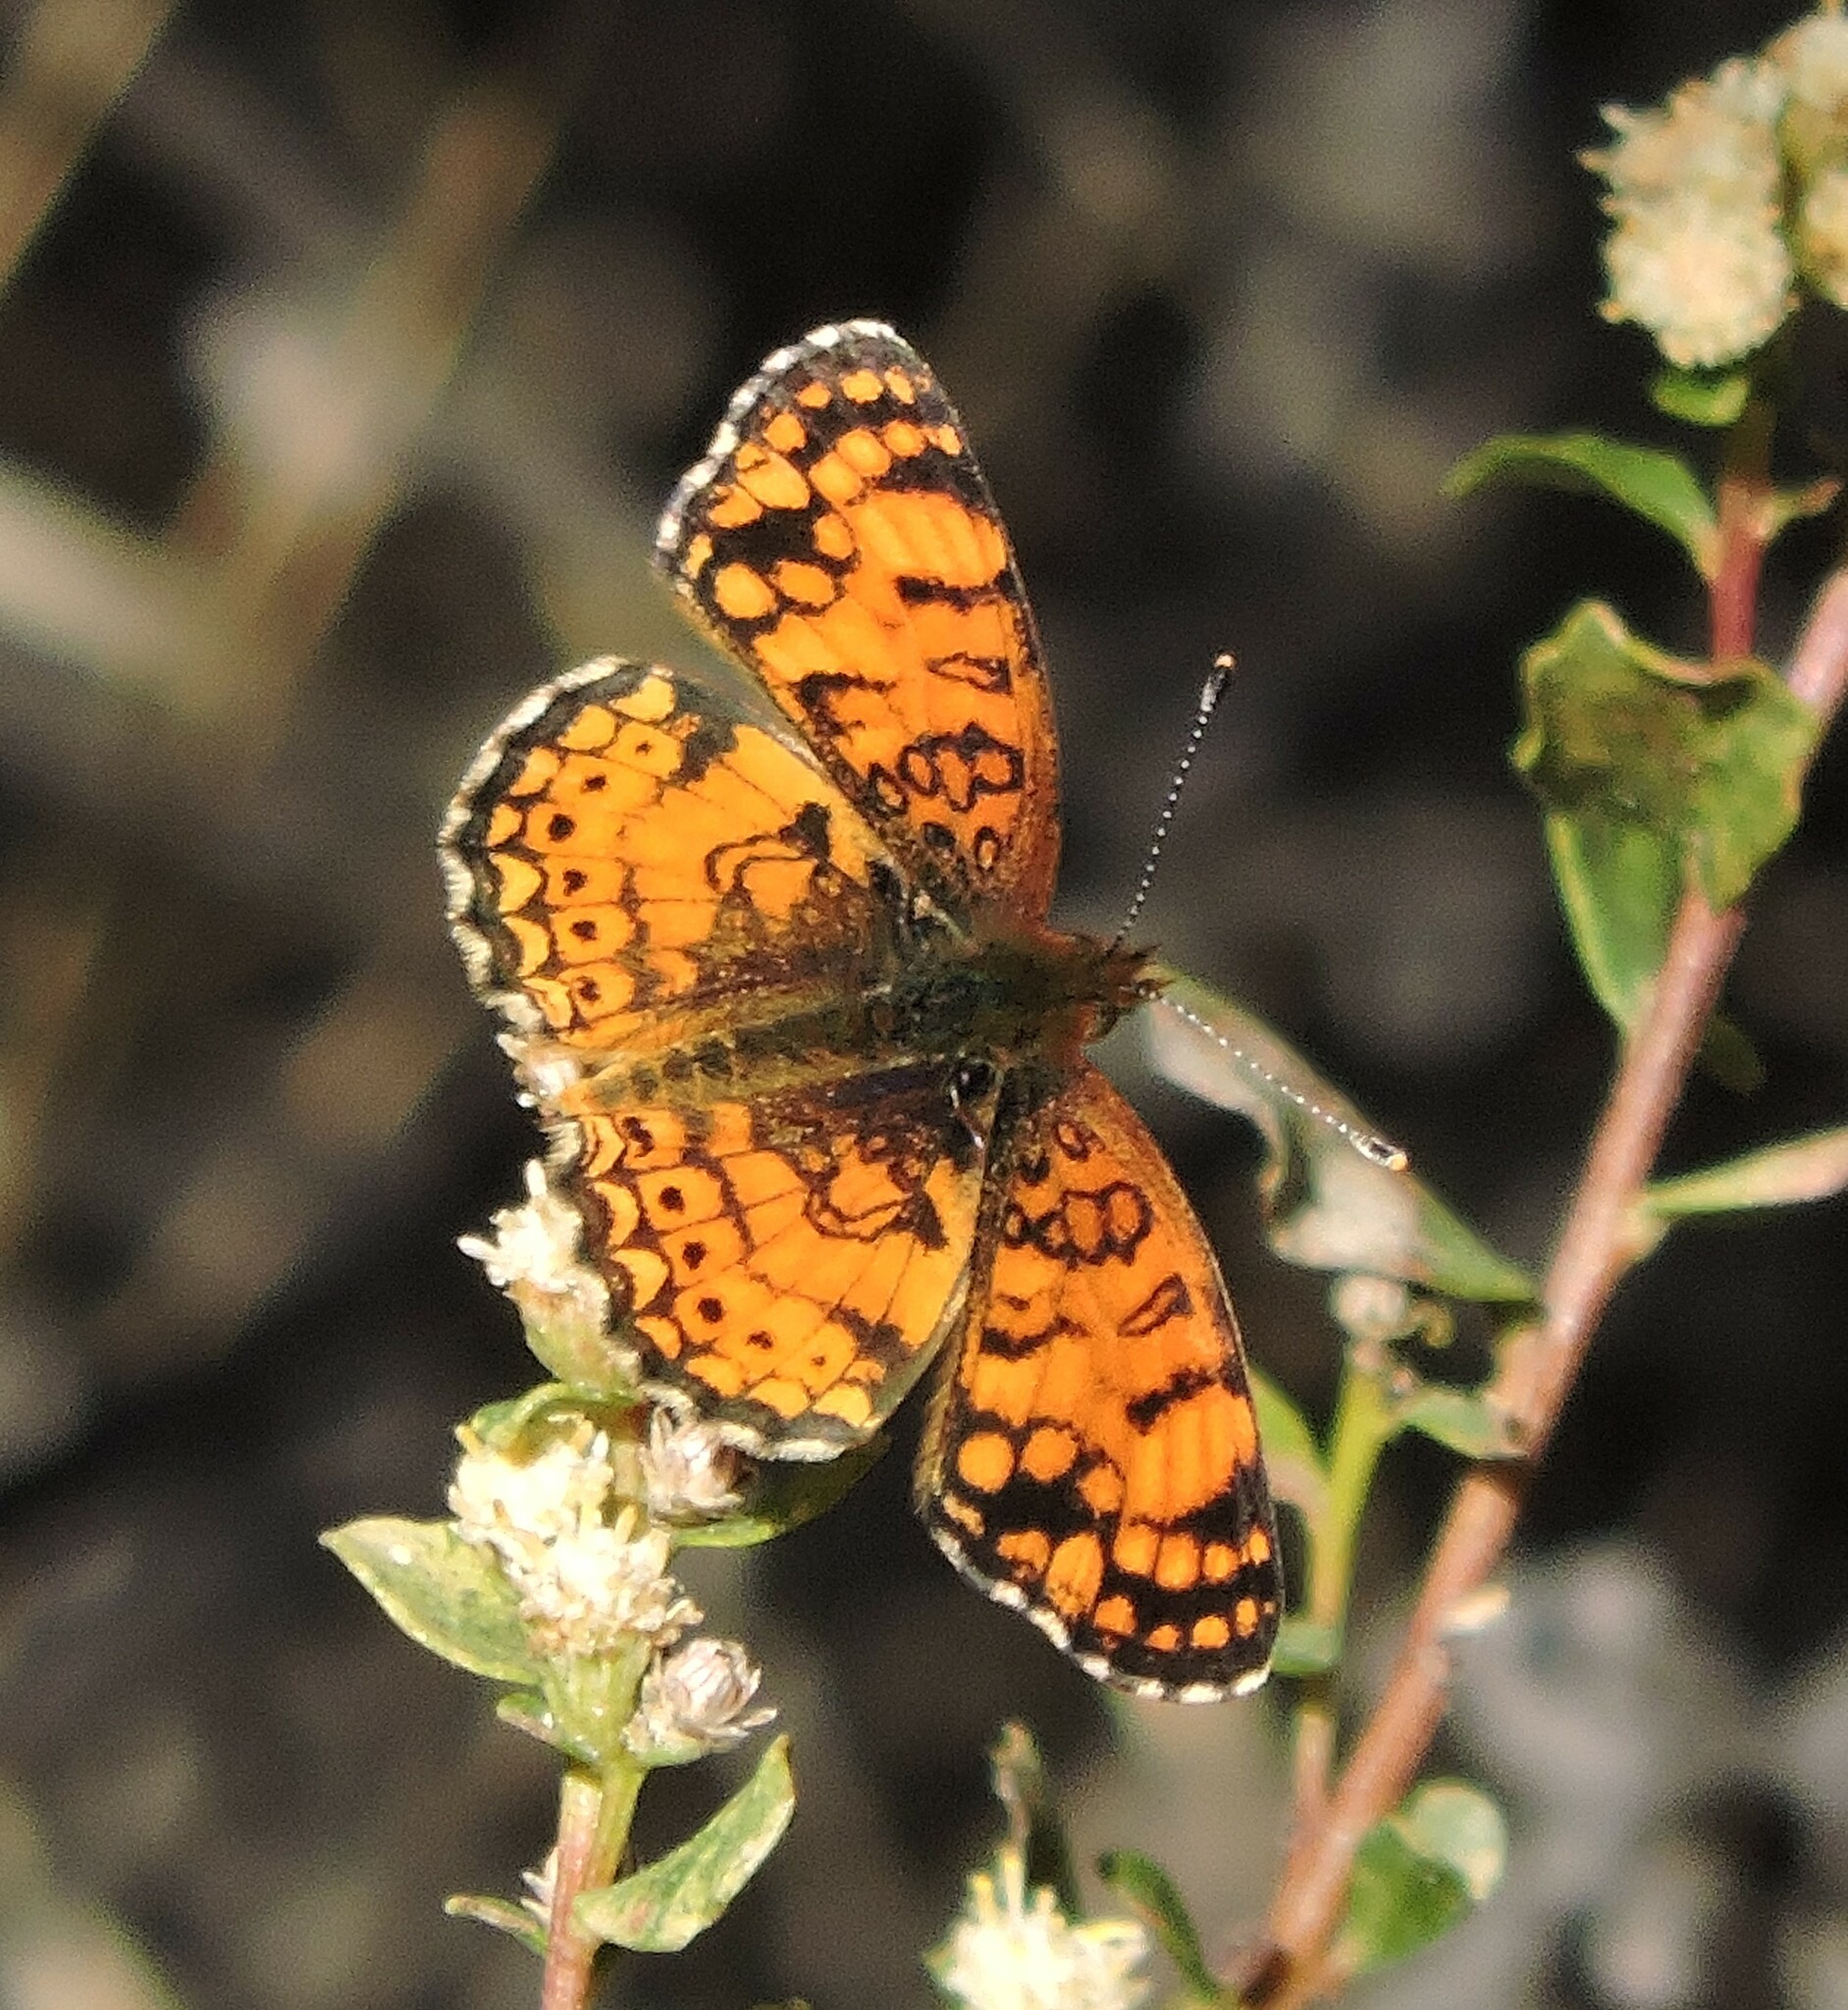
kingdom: Animalia
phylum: Arthropoda
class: Insecta
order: Lepidoptera
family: Nymphalidae
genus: Eresia
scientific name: Eresia aveyrona
